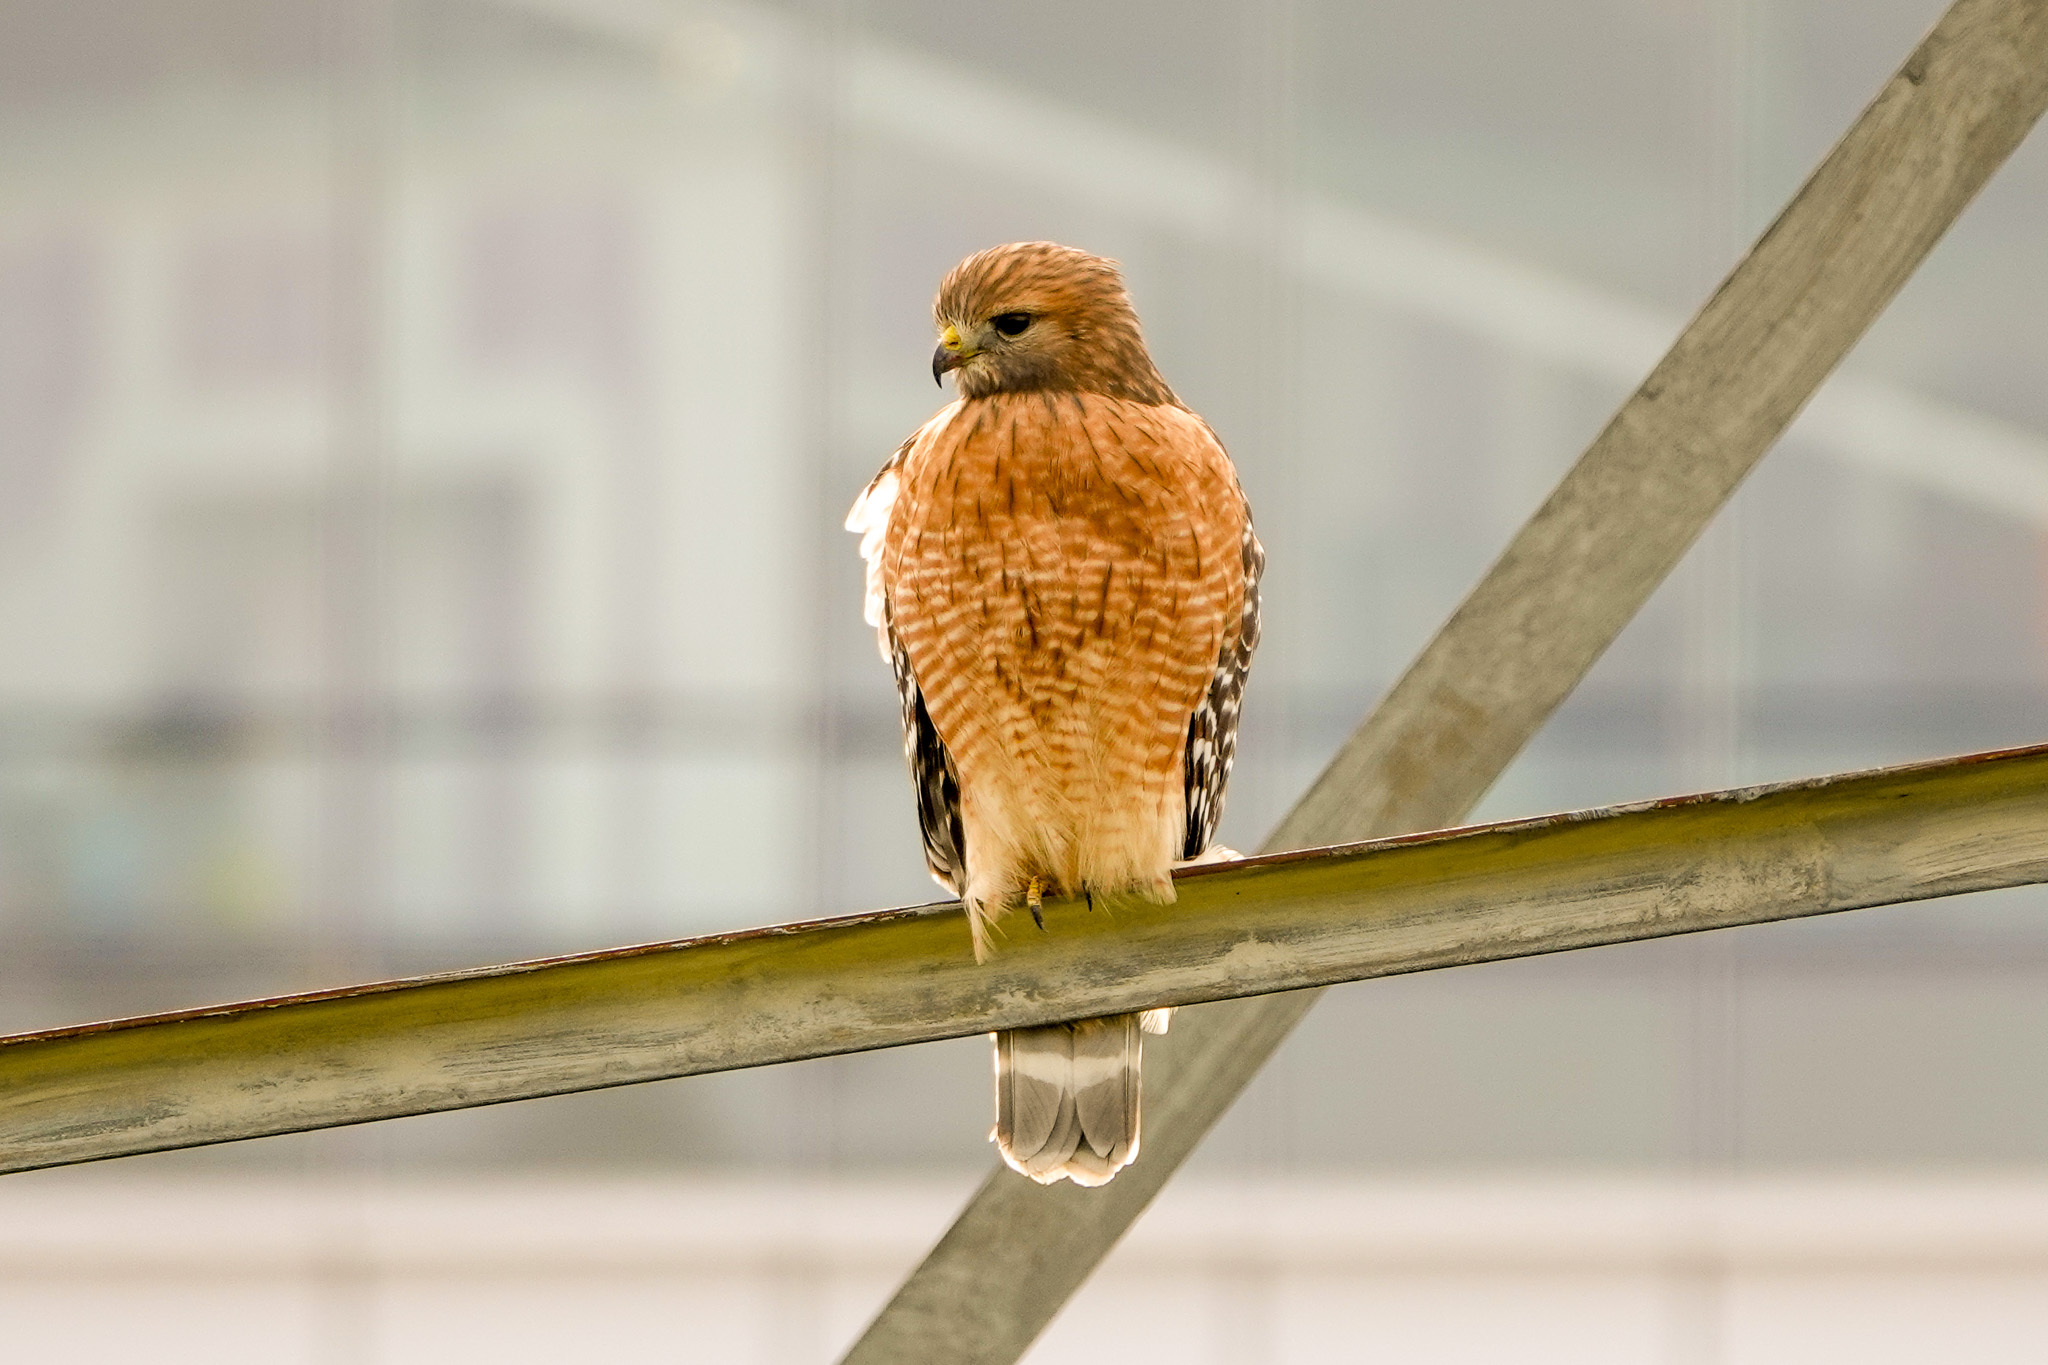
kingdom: Animalia
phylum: Chordata
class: Aves
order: Accipitriformes
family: Accipitridae
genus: Buteo
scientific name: Buteo lineatus
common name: Red-shouldered hawk
